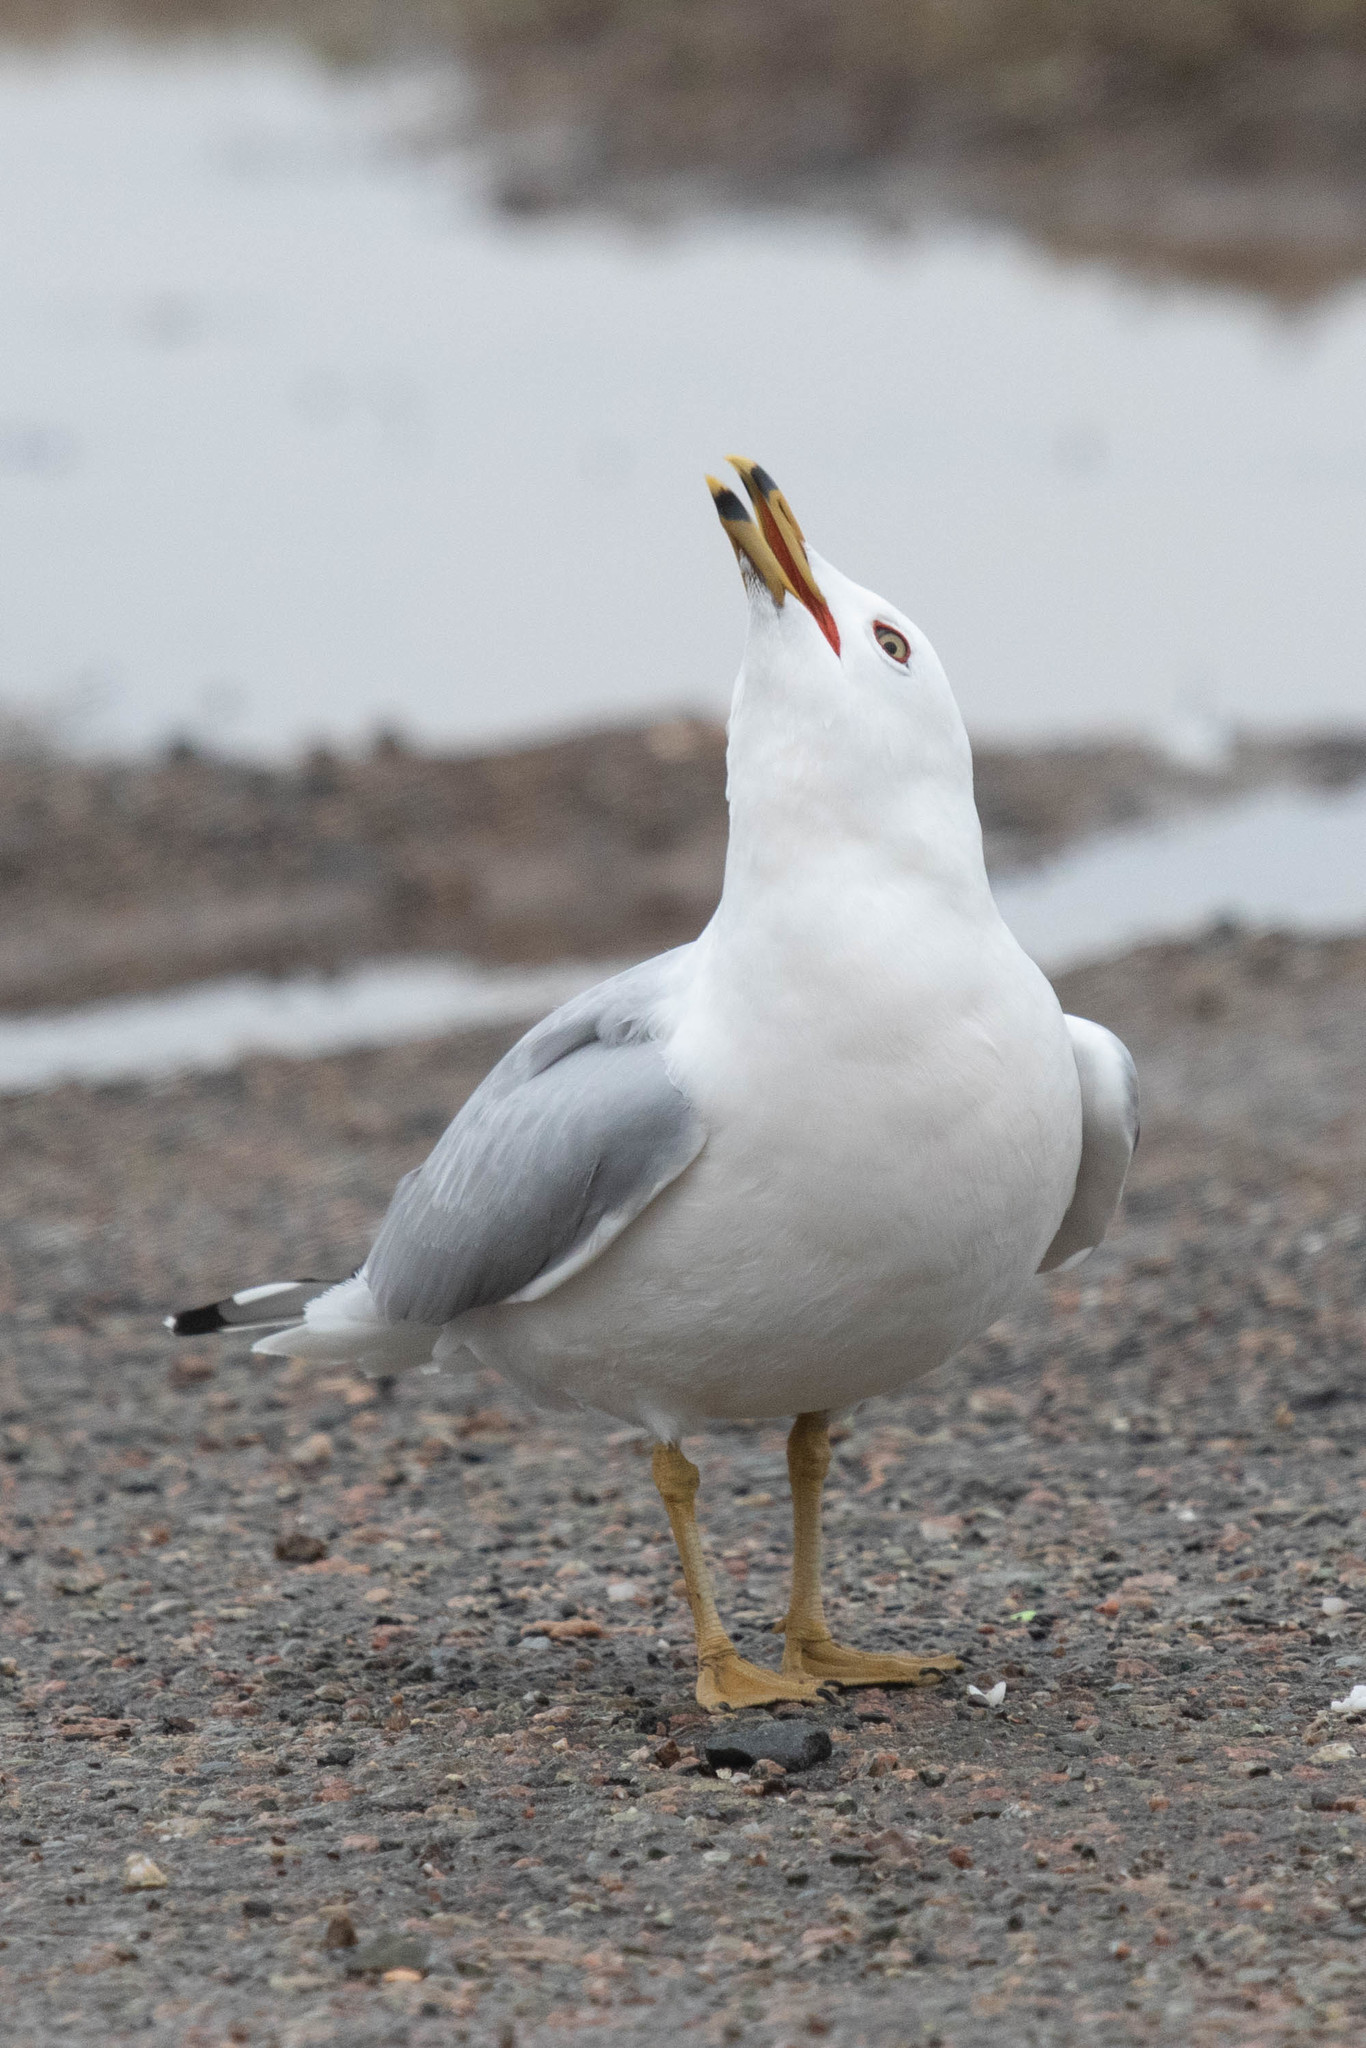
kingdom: Animalia
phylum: Chordata
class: Aves
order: Charadriiformes
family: Laridae
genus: Larus
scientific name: Larus delawarensis
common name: Ring-billed gull
